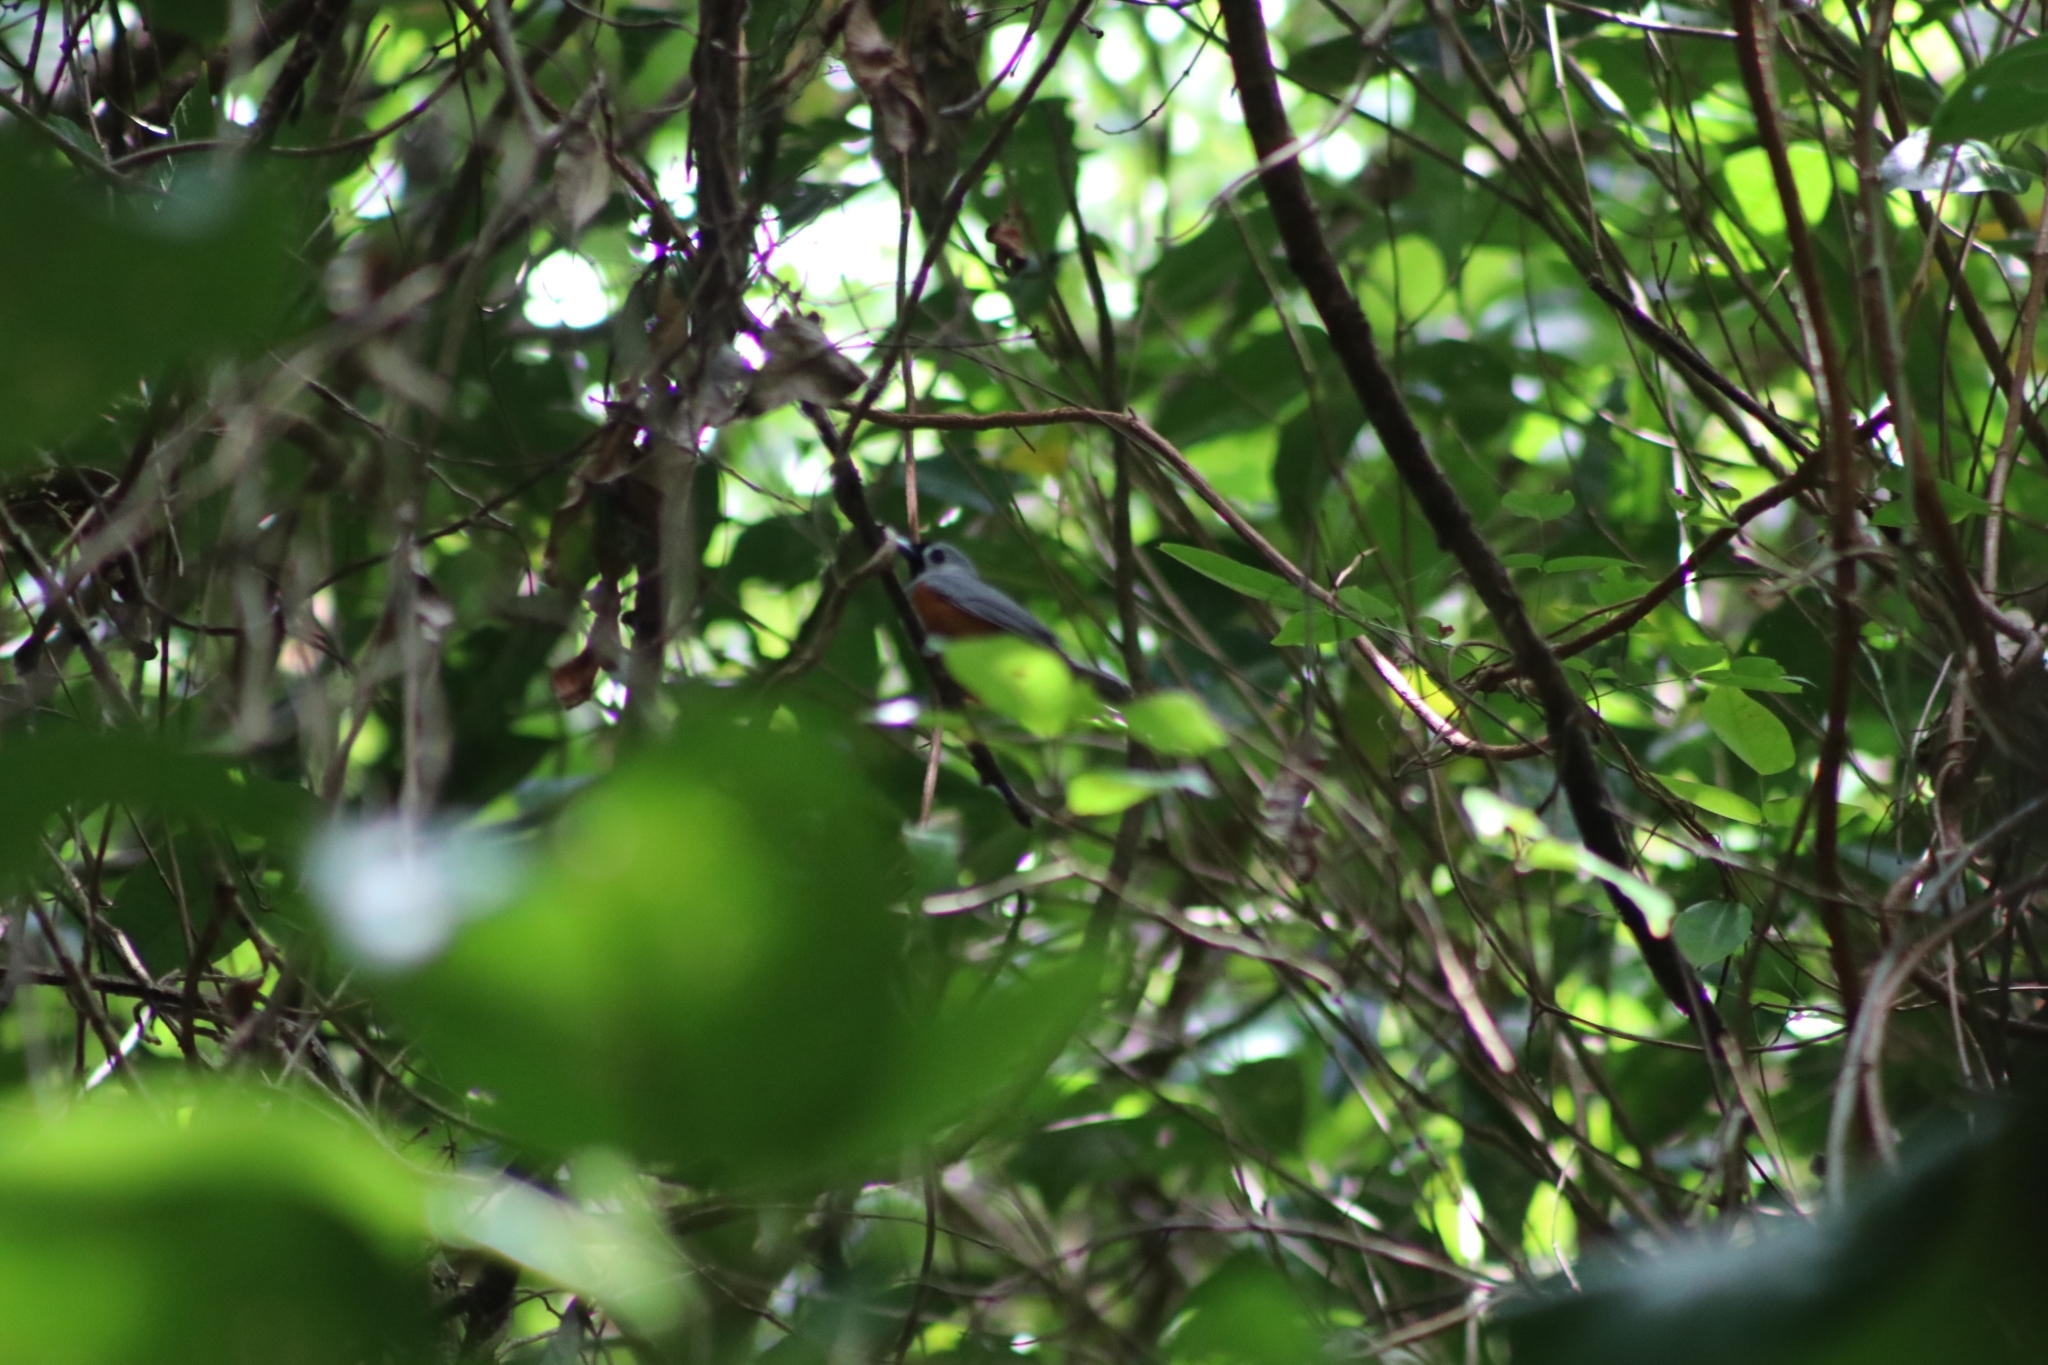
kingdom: Animalia
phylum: Chordata
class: Aves
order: Passeriformes
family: Monarchidae
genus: Monarcha
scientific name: Monarcha melanopsis
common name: Black-faced monarch
